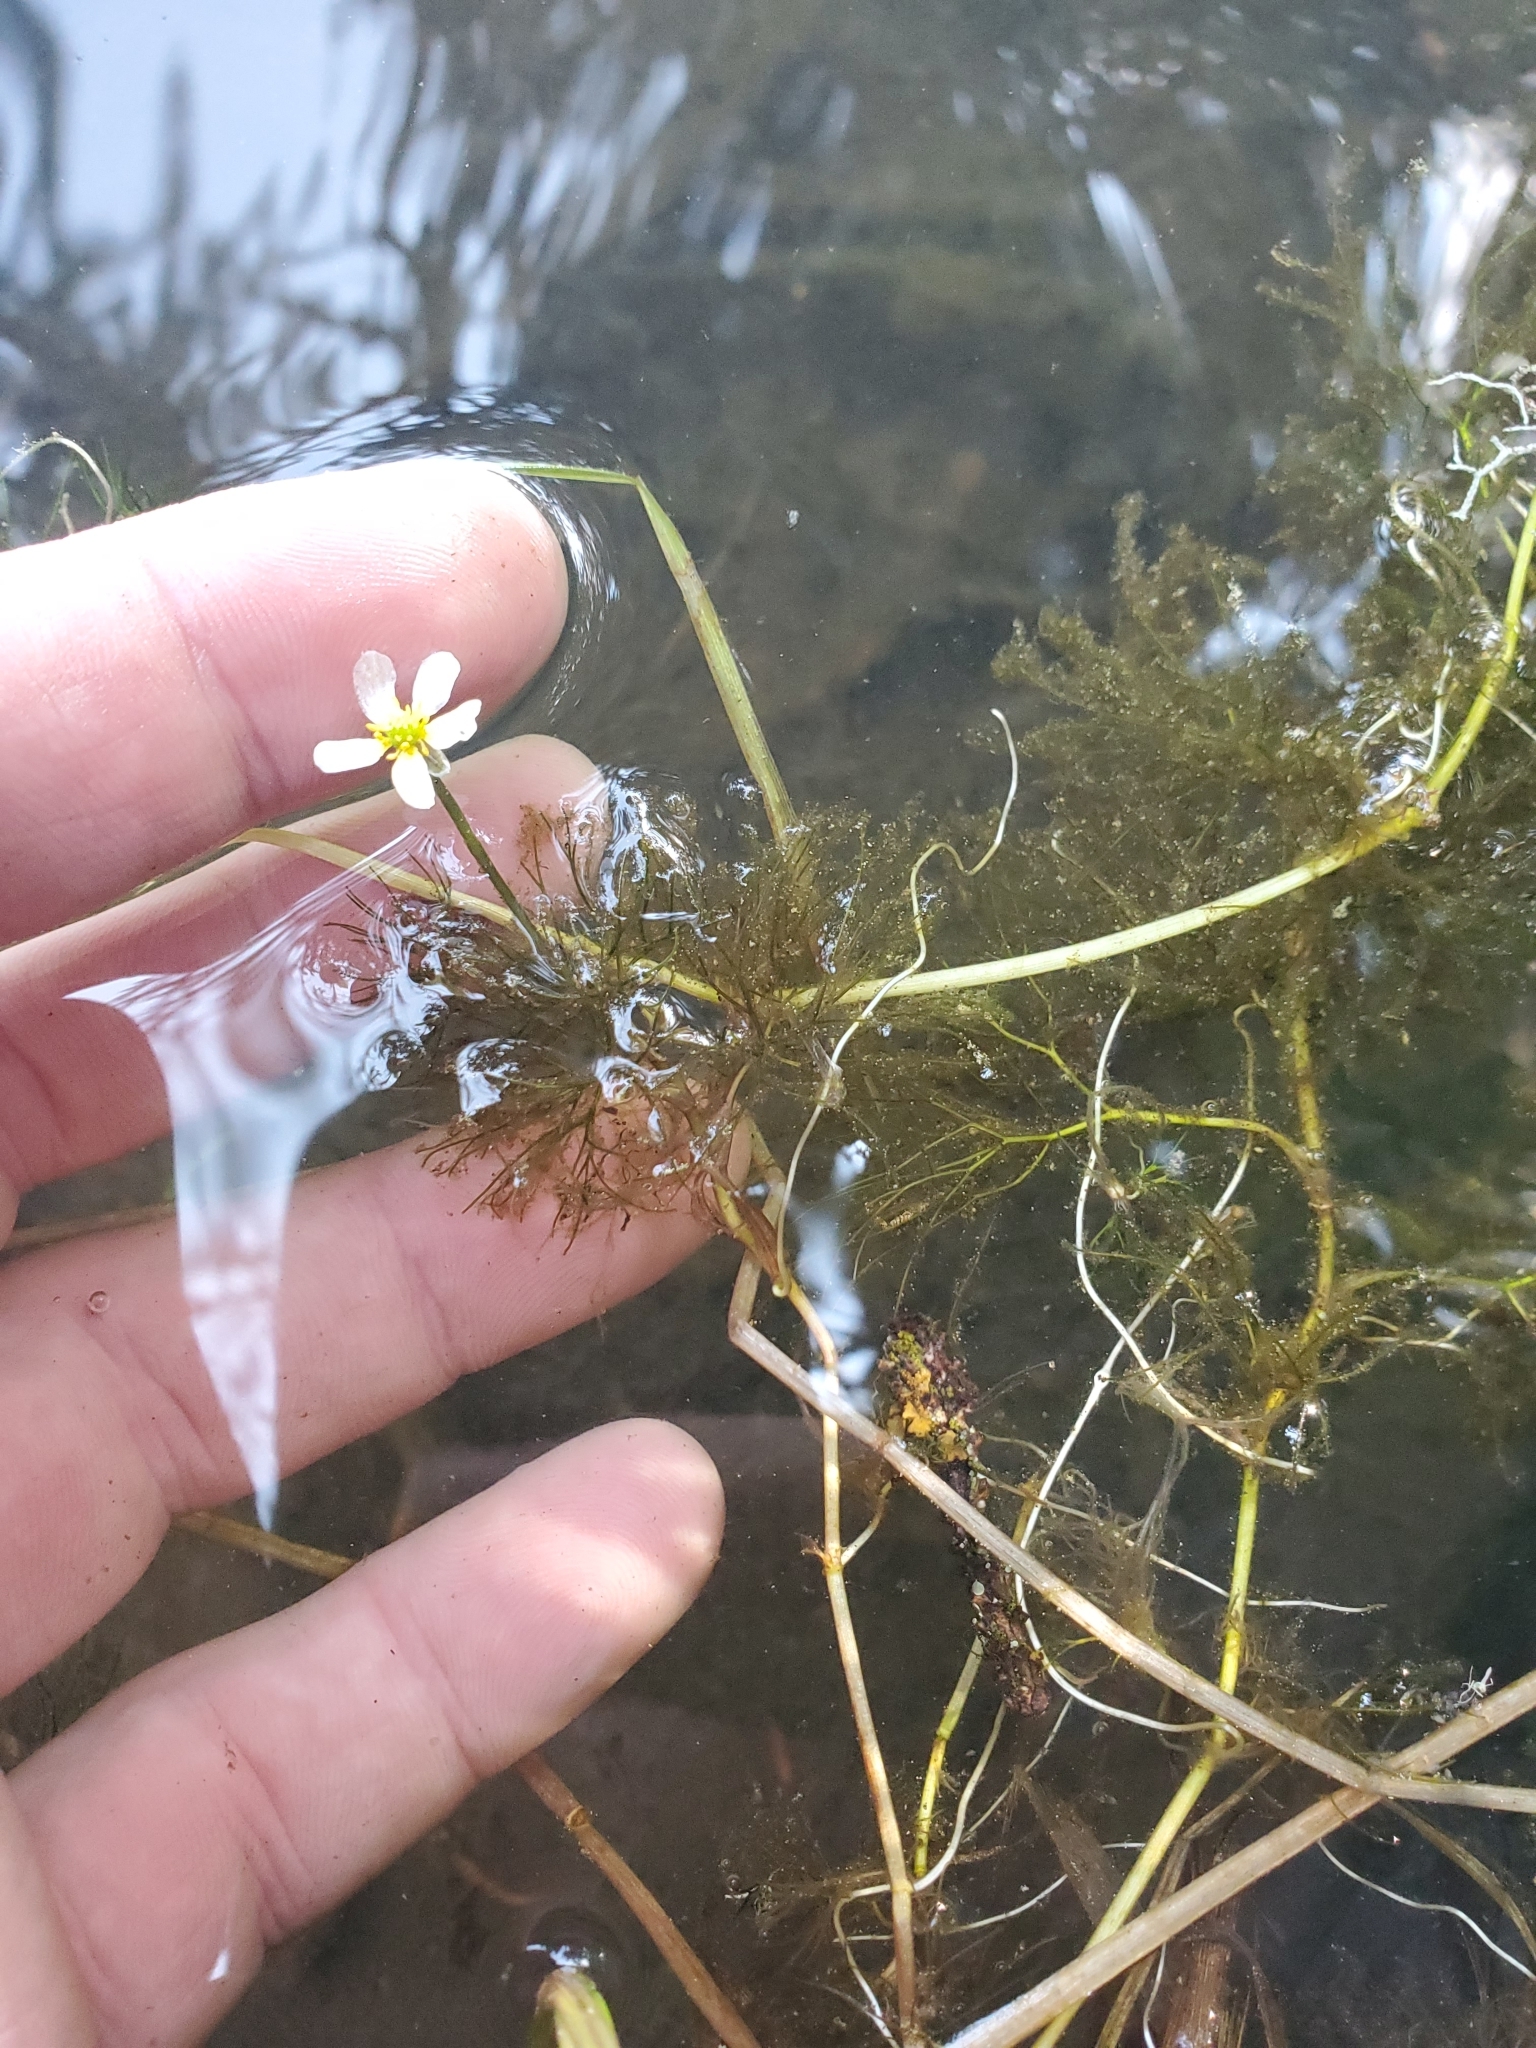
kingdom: Plantae
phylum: Tracheophyta
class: Magnoliopsida
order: Ranunculales
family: Ranunculaceae
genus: Ranunculus
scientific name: Ranunculus aquatilis
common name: Common water-crowfoot
